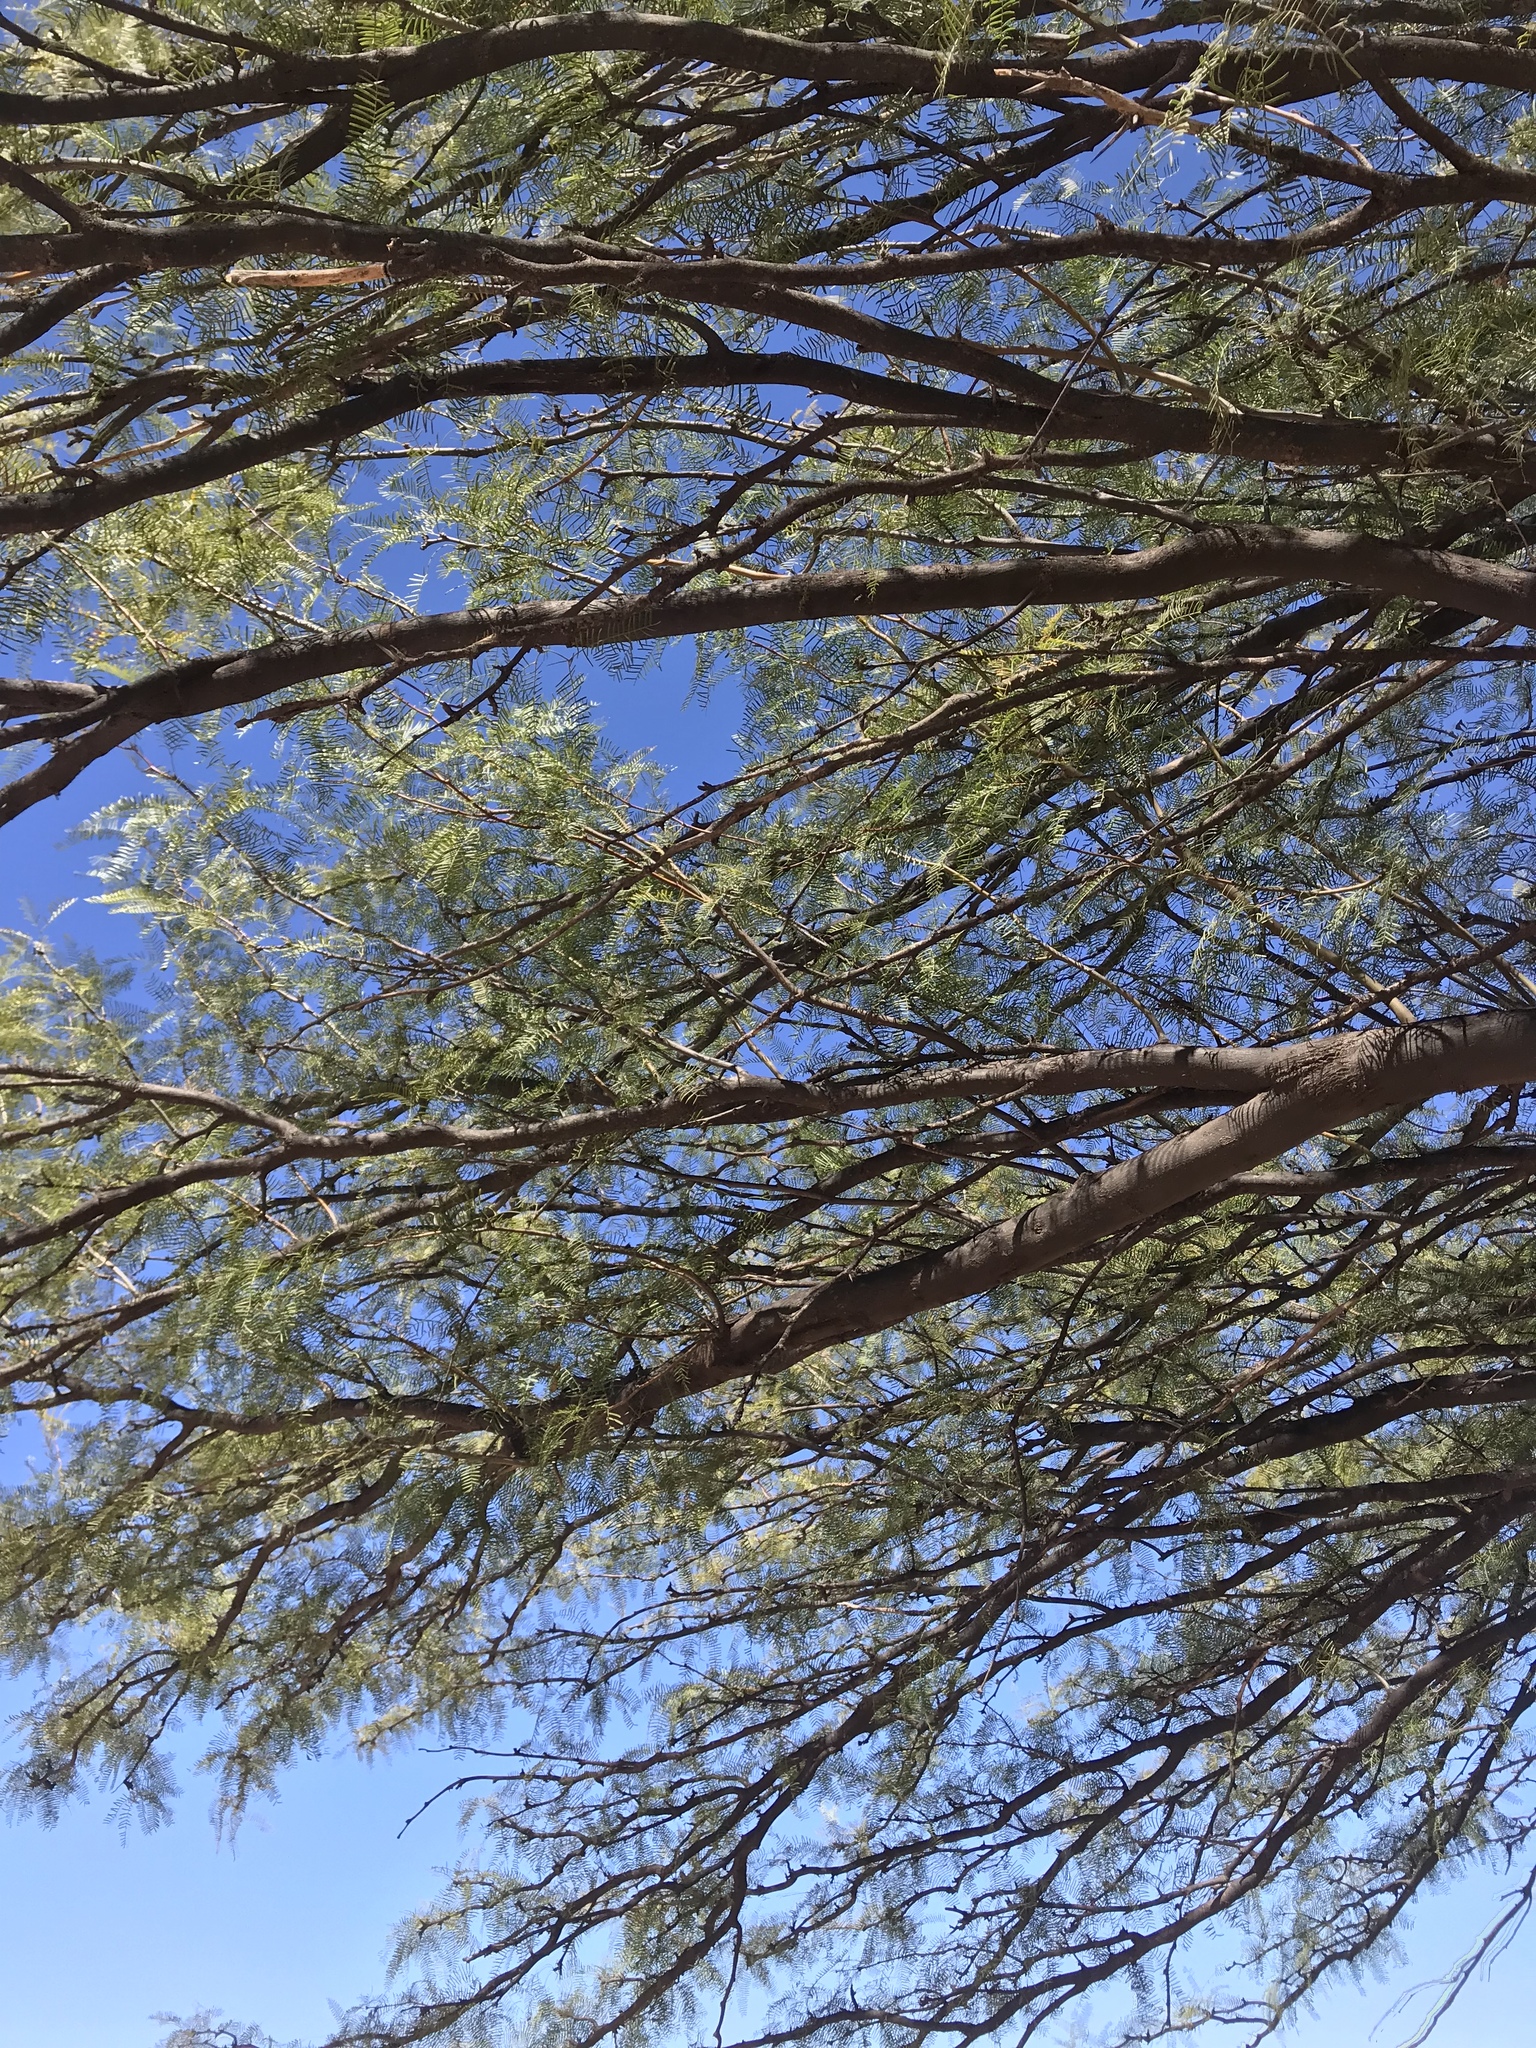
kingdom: Plantae
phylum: Tracheophyta
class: Magnoliopsida
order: Fabales
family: Fabaceae
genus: Prosopis
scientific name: Prosopis glandulosa
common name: Honey mesquite
